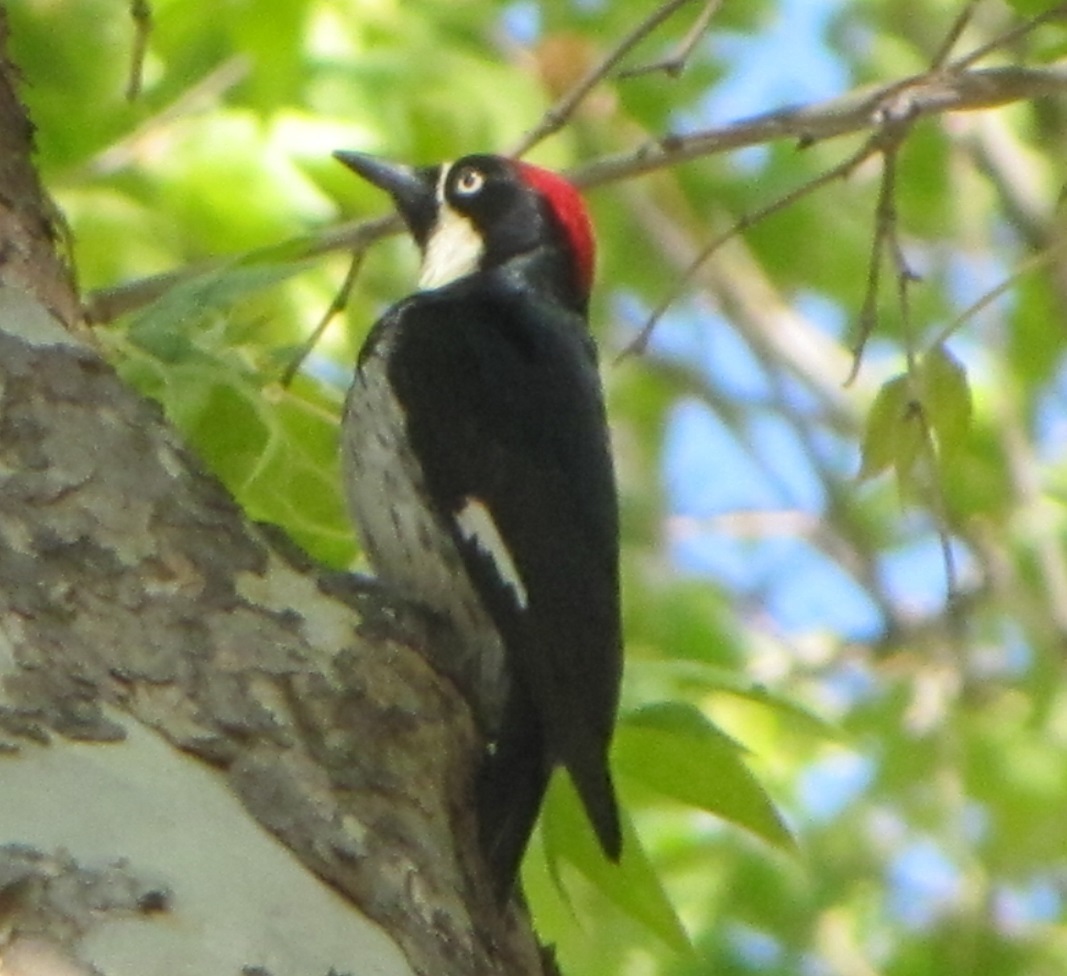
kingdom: Animalia
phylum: Chordata
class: Aves
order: Piciformes
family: Picidae
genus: Melanerpes
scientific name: Melanerpes formicivorus
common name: Acorn woodpecker
